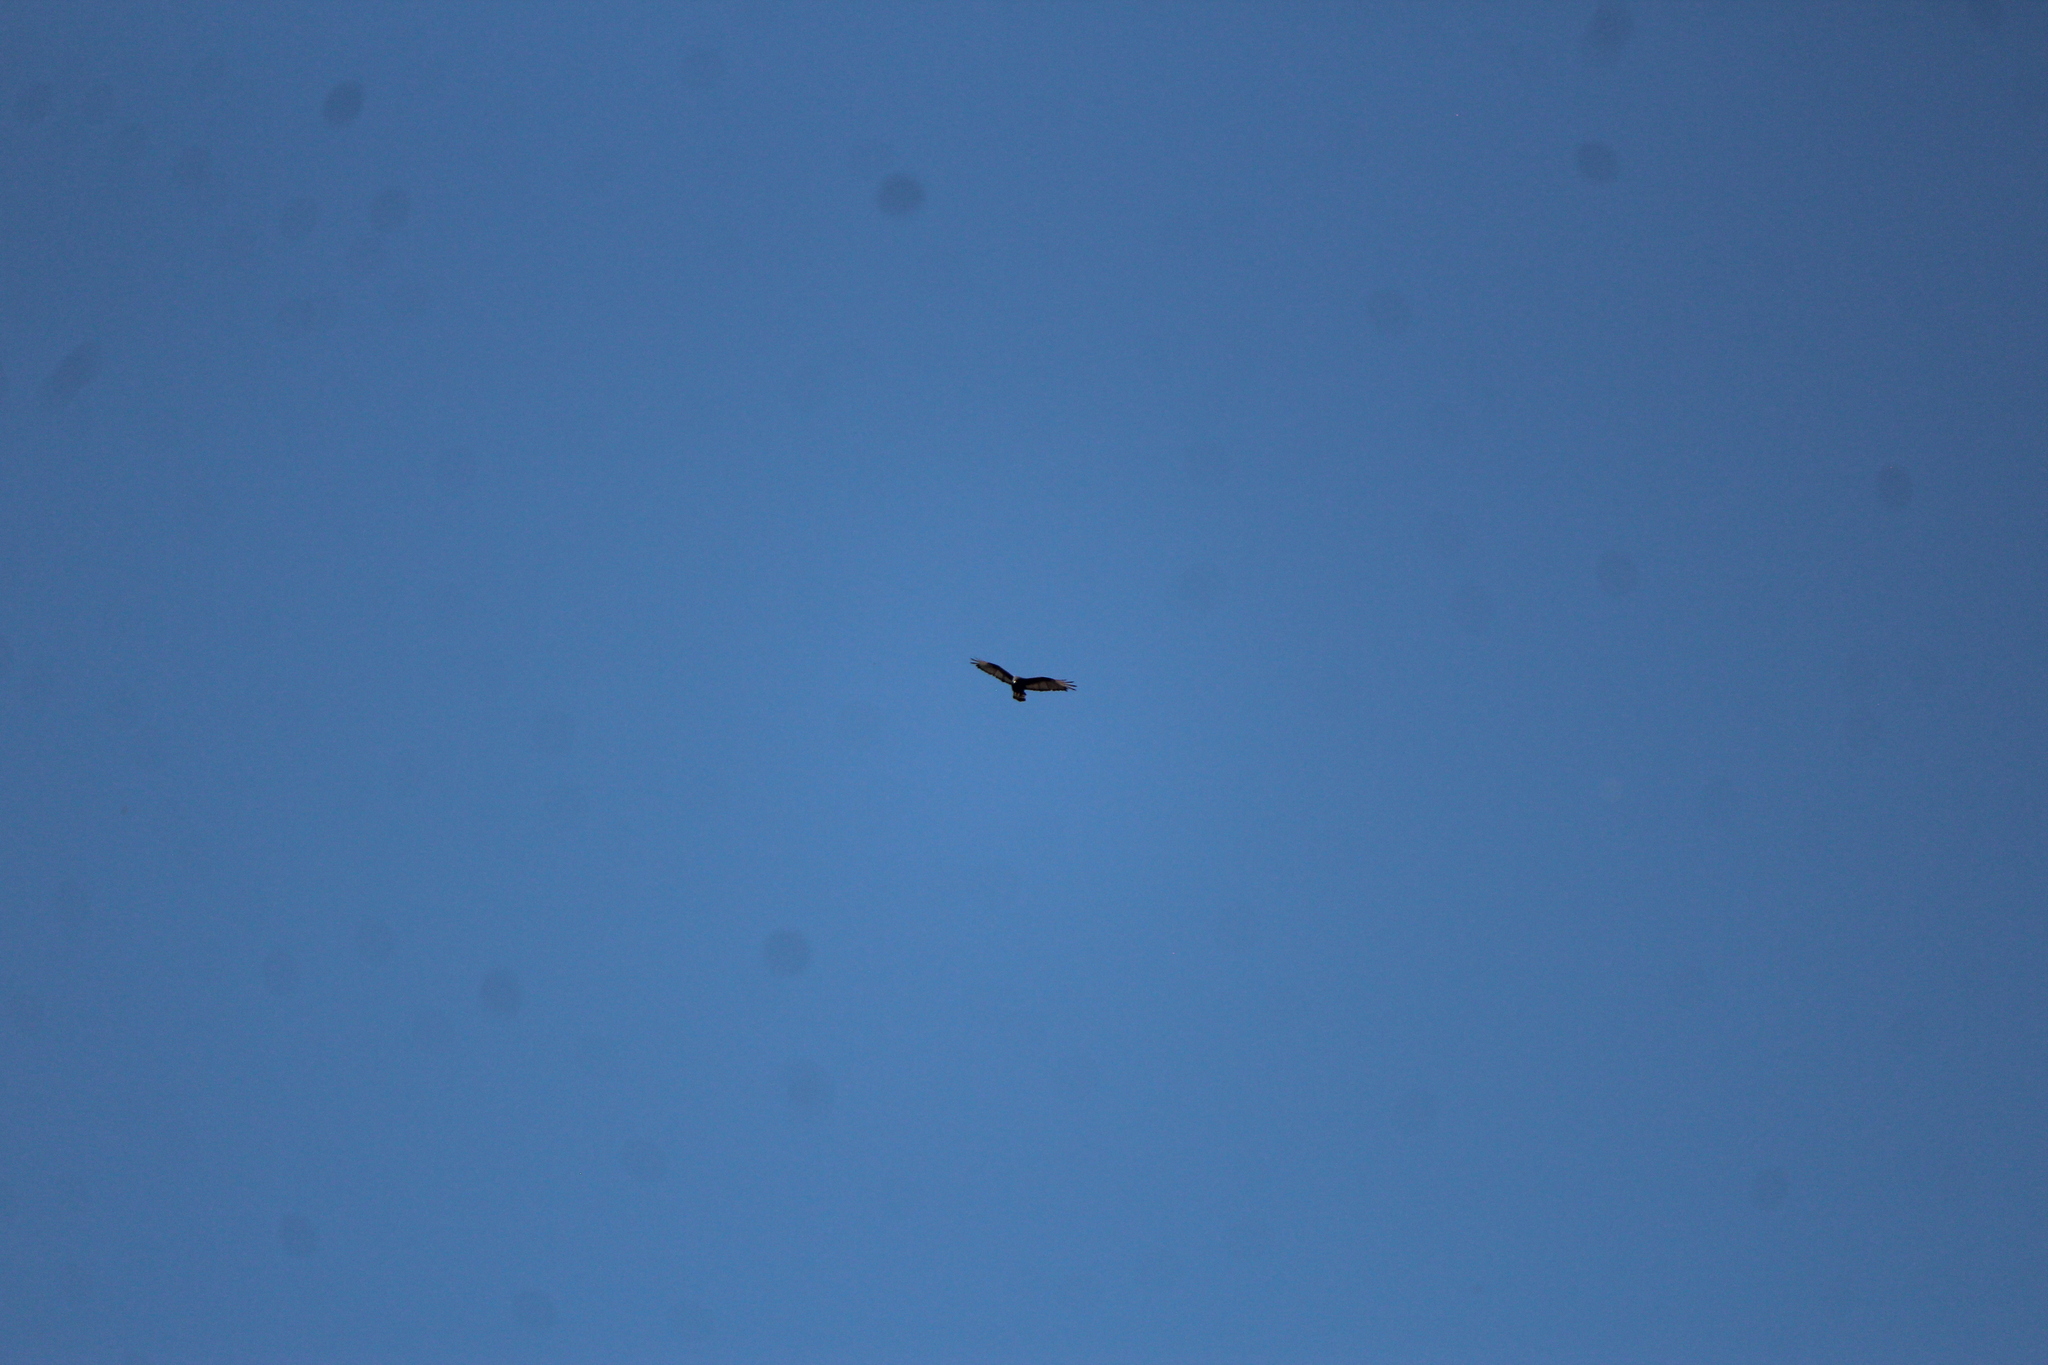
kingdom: Animalia
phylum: Chordata
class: Aves
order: Accipitriformes
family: Accipitridae
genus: Buteo
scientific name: Buteo albonotatus
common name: Zone-tailed hawk
